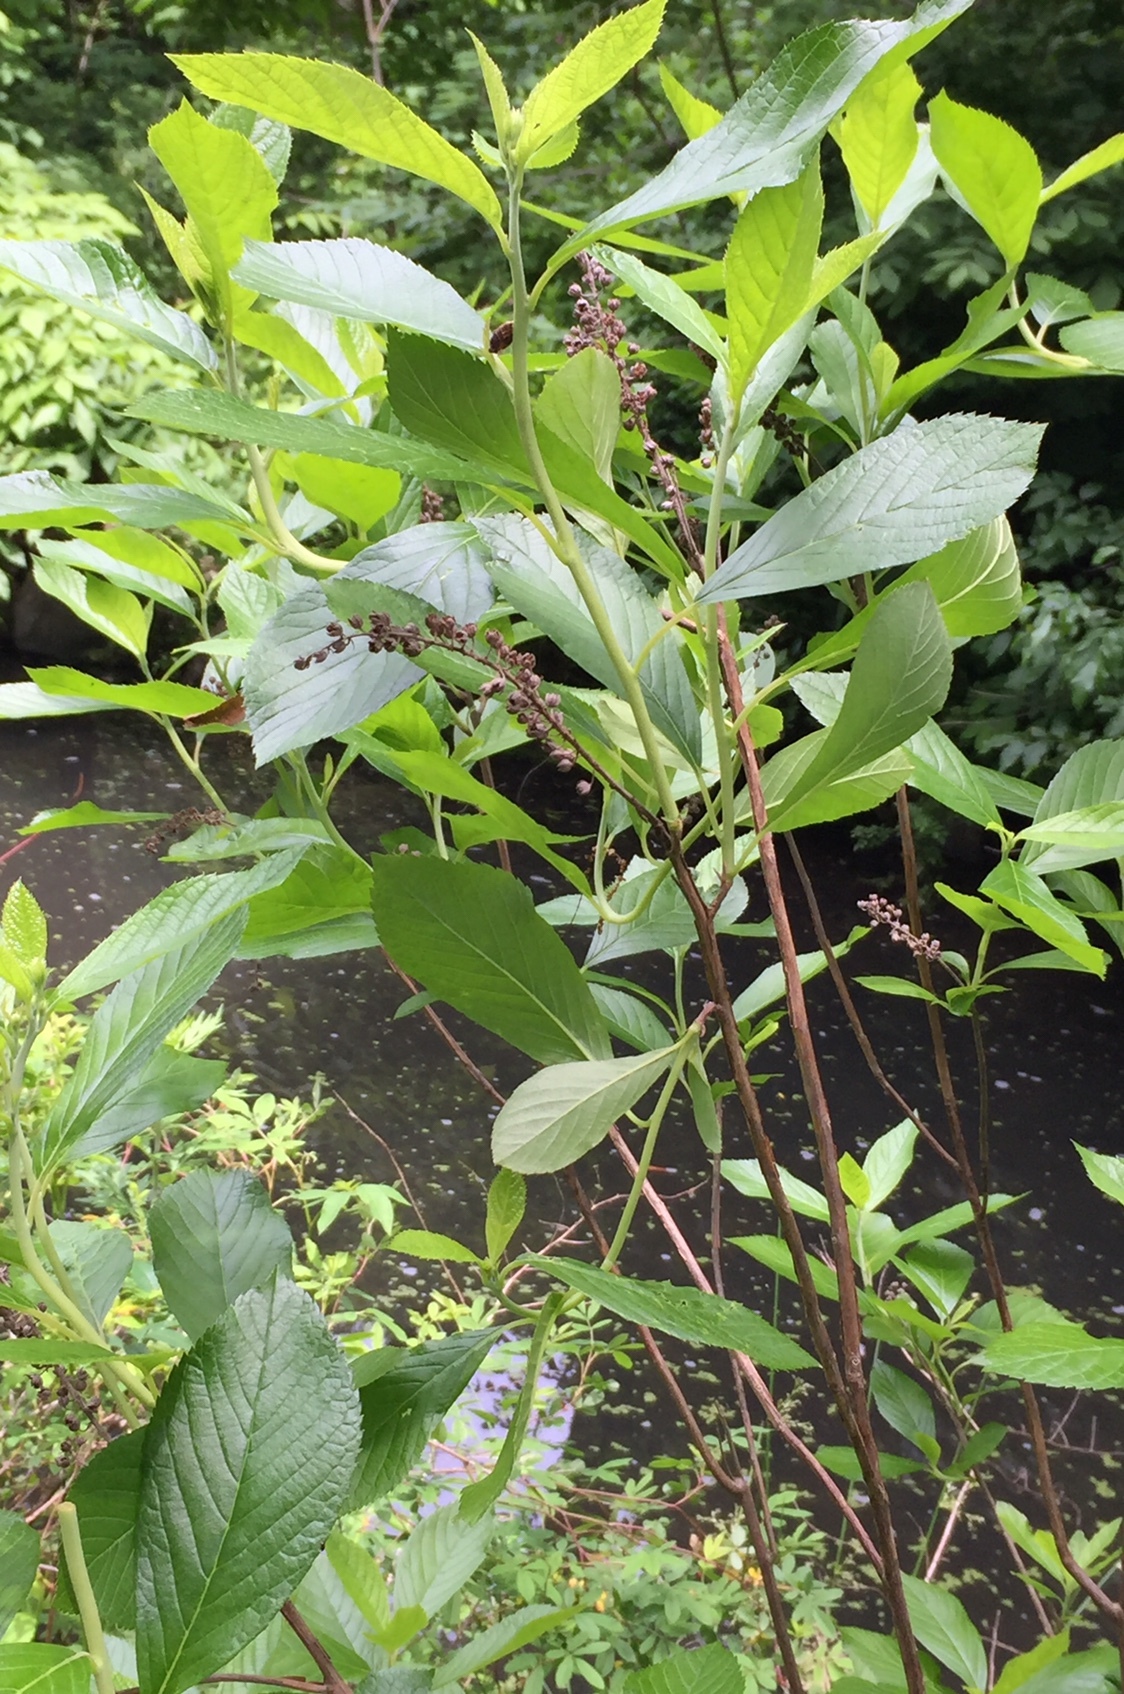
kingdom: Plantae
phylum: Tracheophyta
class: Magnoliopsida
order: Ericales
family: Clethraceae
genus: Clethra
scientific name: Clethra alnifolia
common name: Sweet pepperbush
